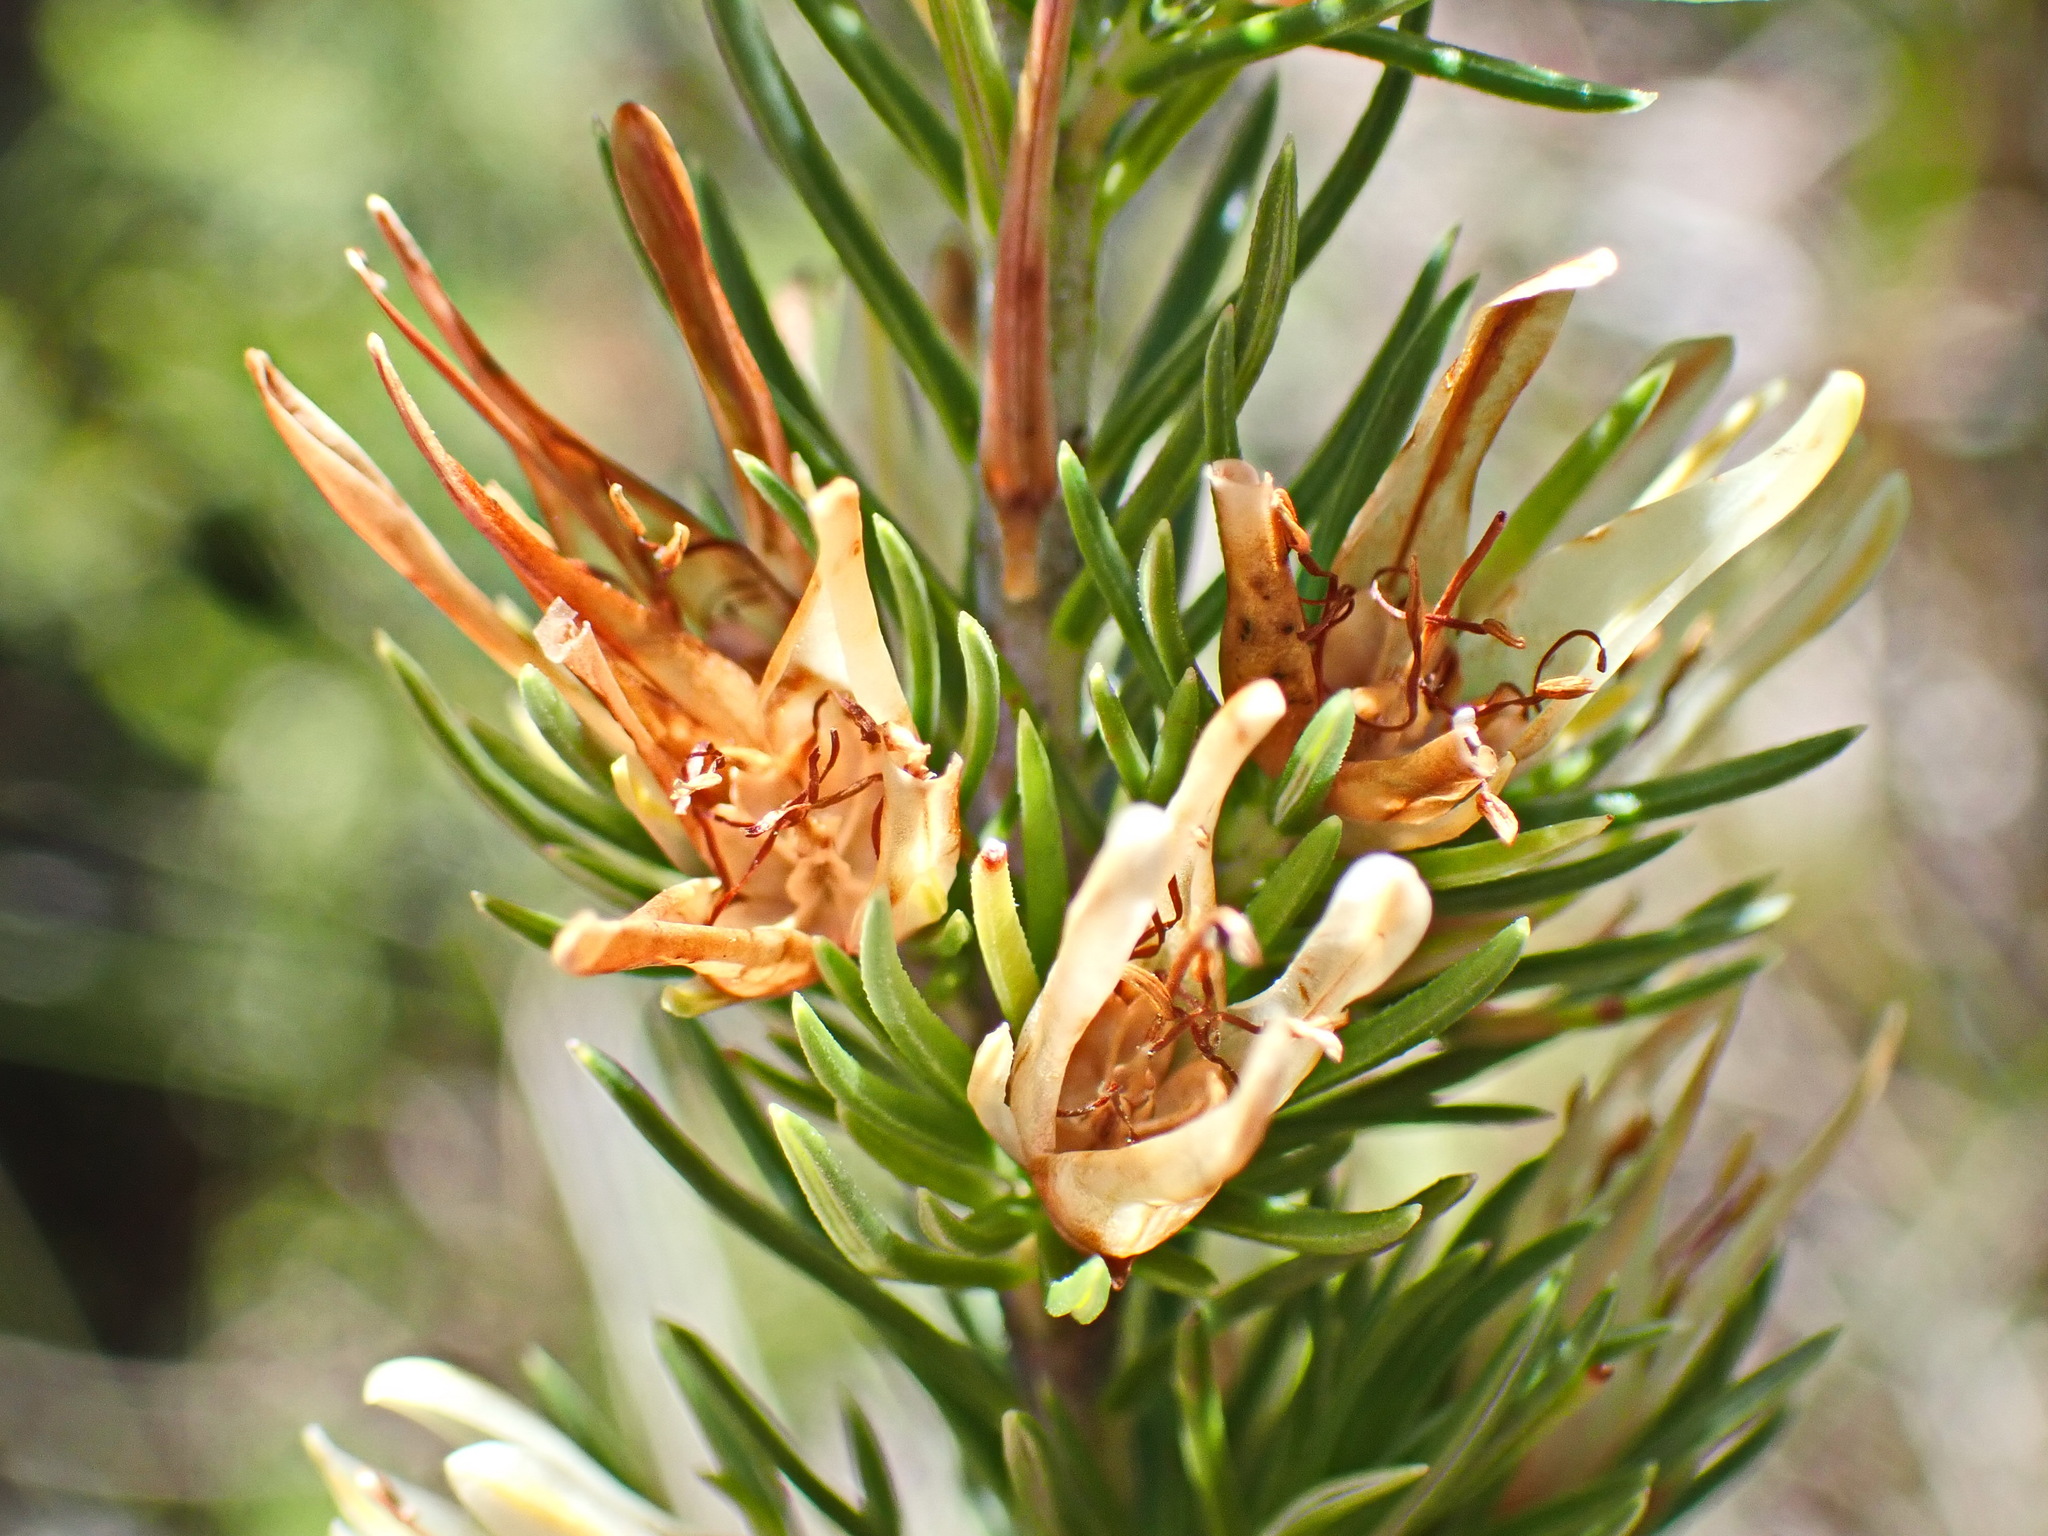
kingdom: Plantae
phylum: Tracheophyta
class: Magnoliopsida
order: Ericales
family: Ericaceae
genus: Erica
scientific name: Erica nabea
